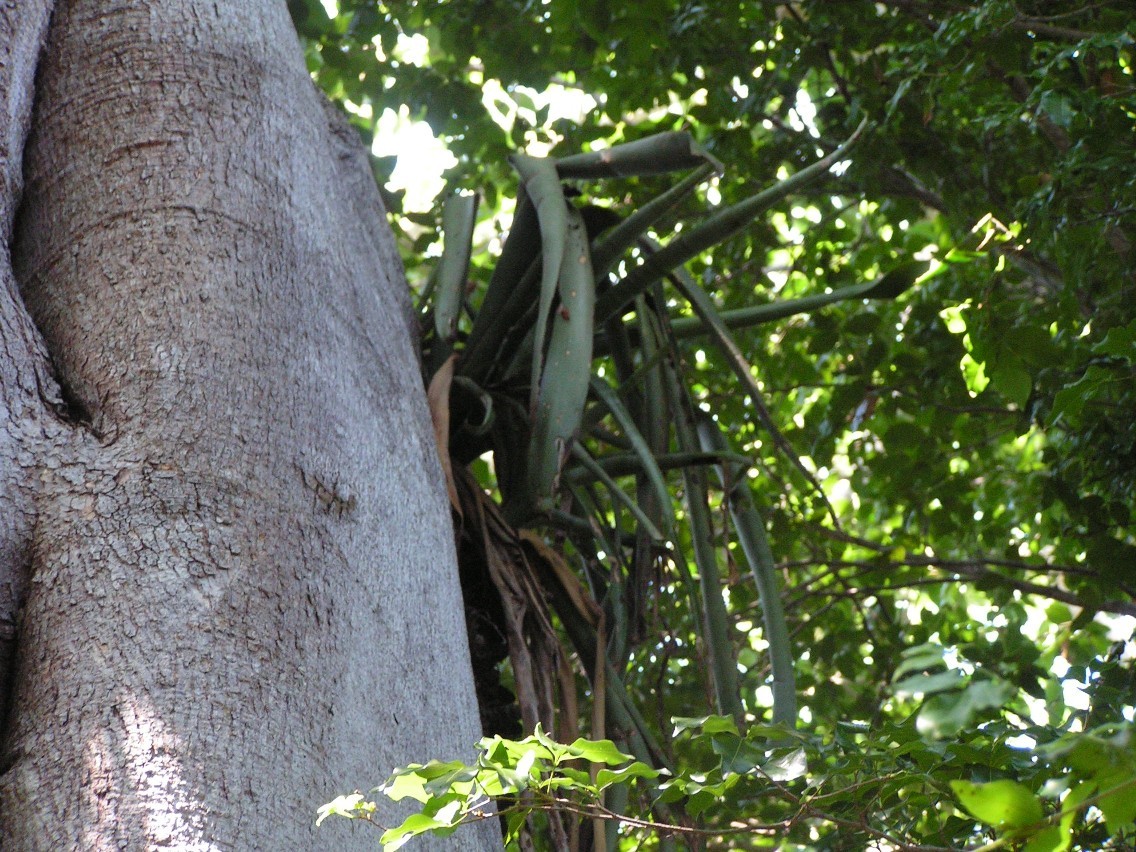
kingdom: Plantae
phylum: Tracheophyta
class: Liliopsida
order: Poales
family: Bromeliaceae
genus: Billbergia
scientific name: Billbergia pallidiflora
